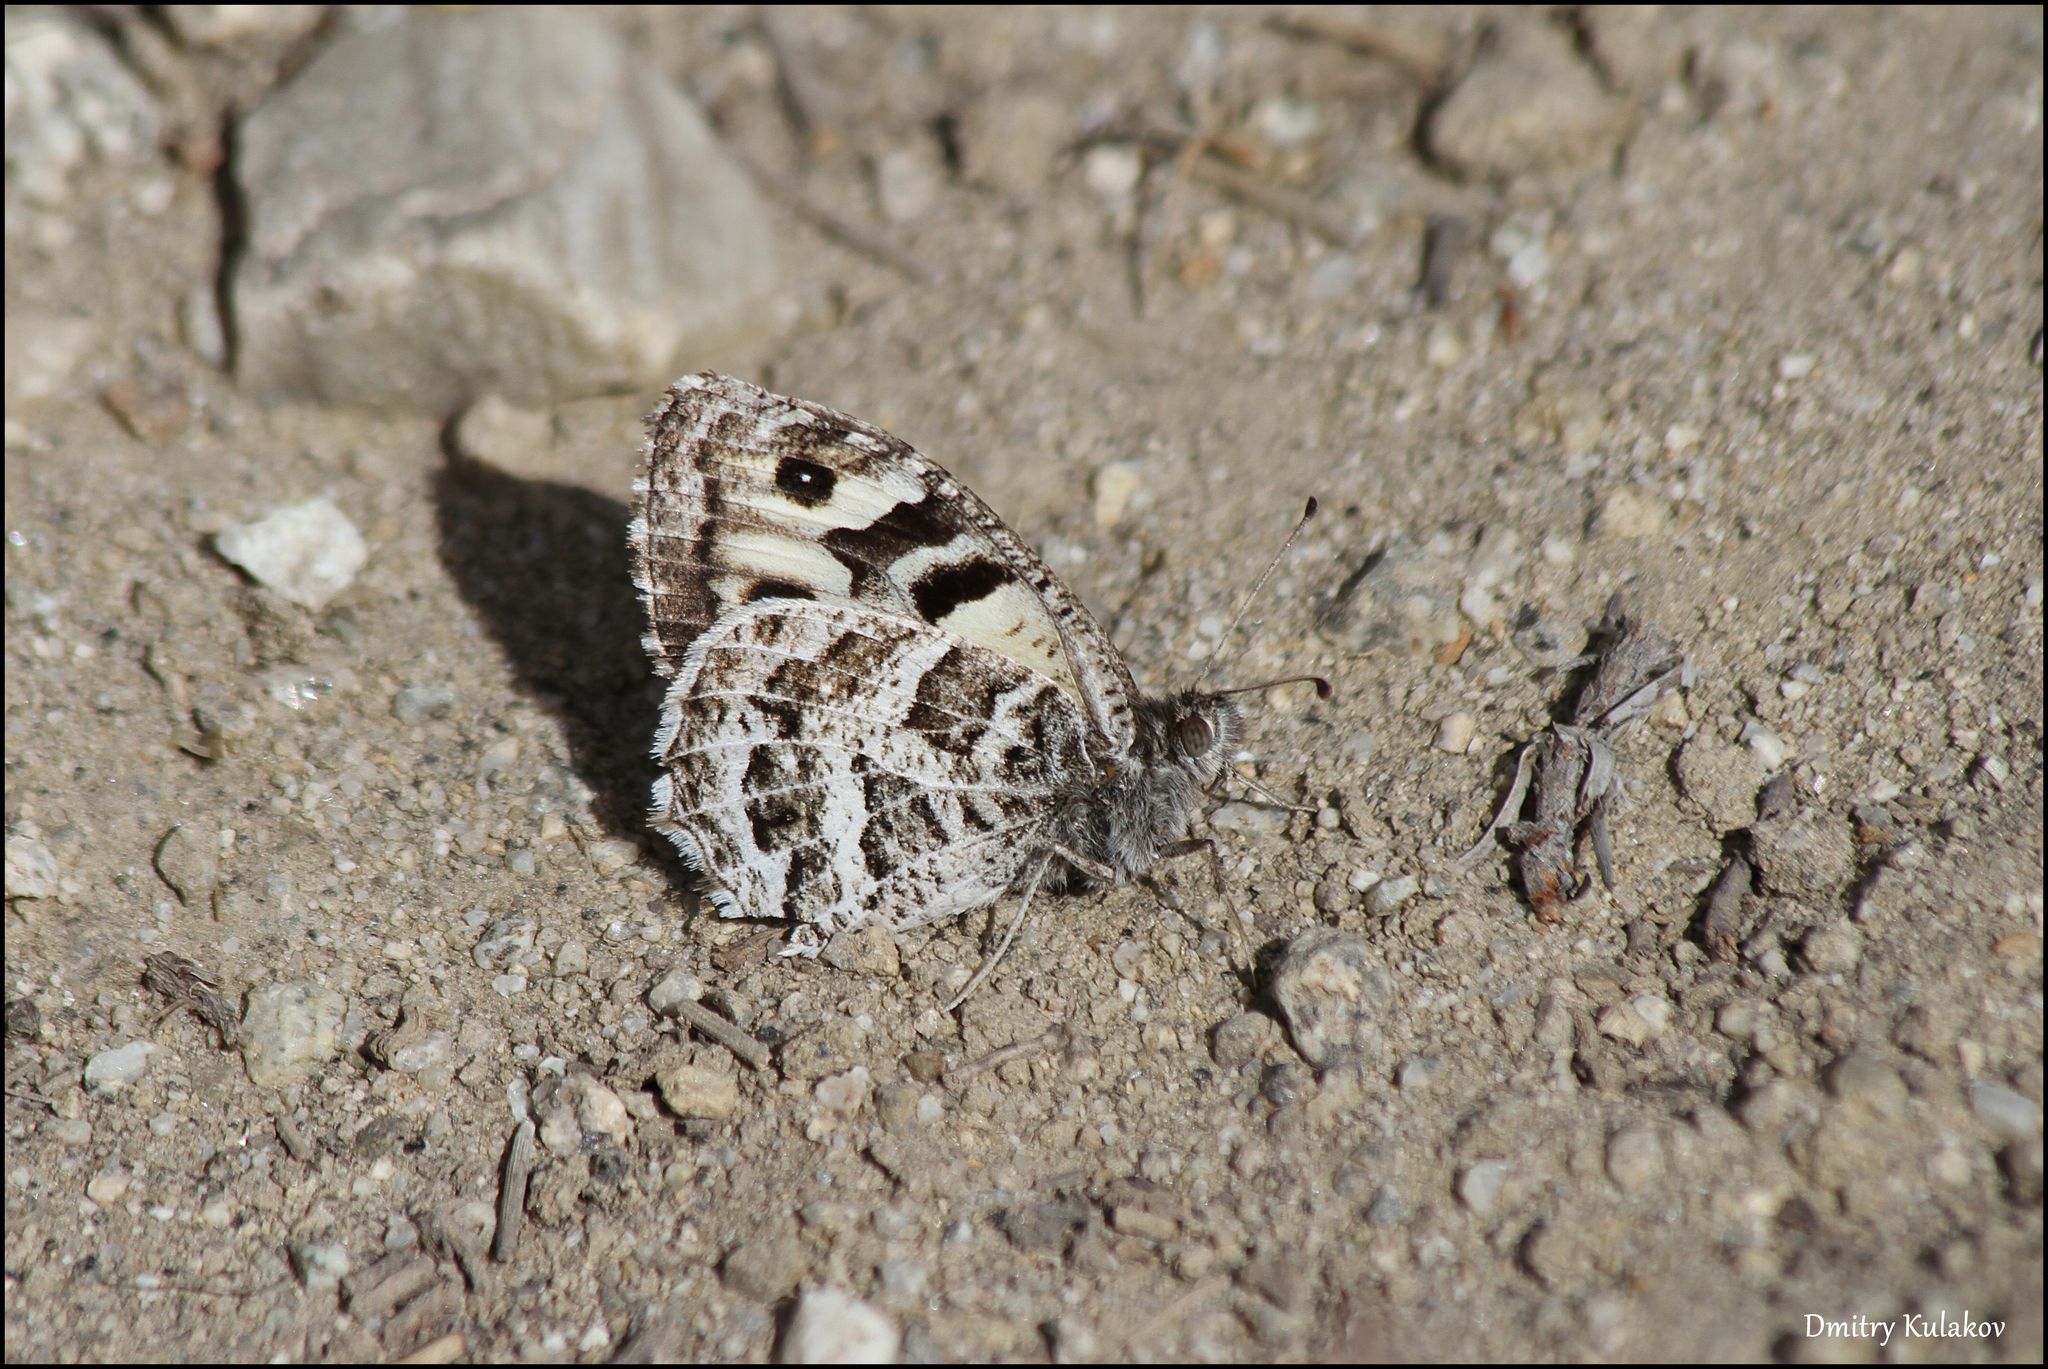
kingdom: Animalia
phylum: Arthropoda
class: Insecta
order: Lepidoptera
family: Nymphalidae
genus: Satyrus
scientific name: Satyrus Chazara heydenreichi
